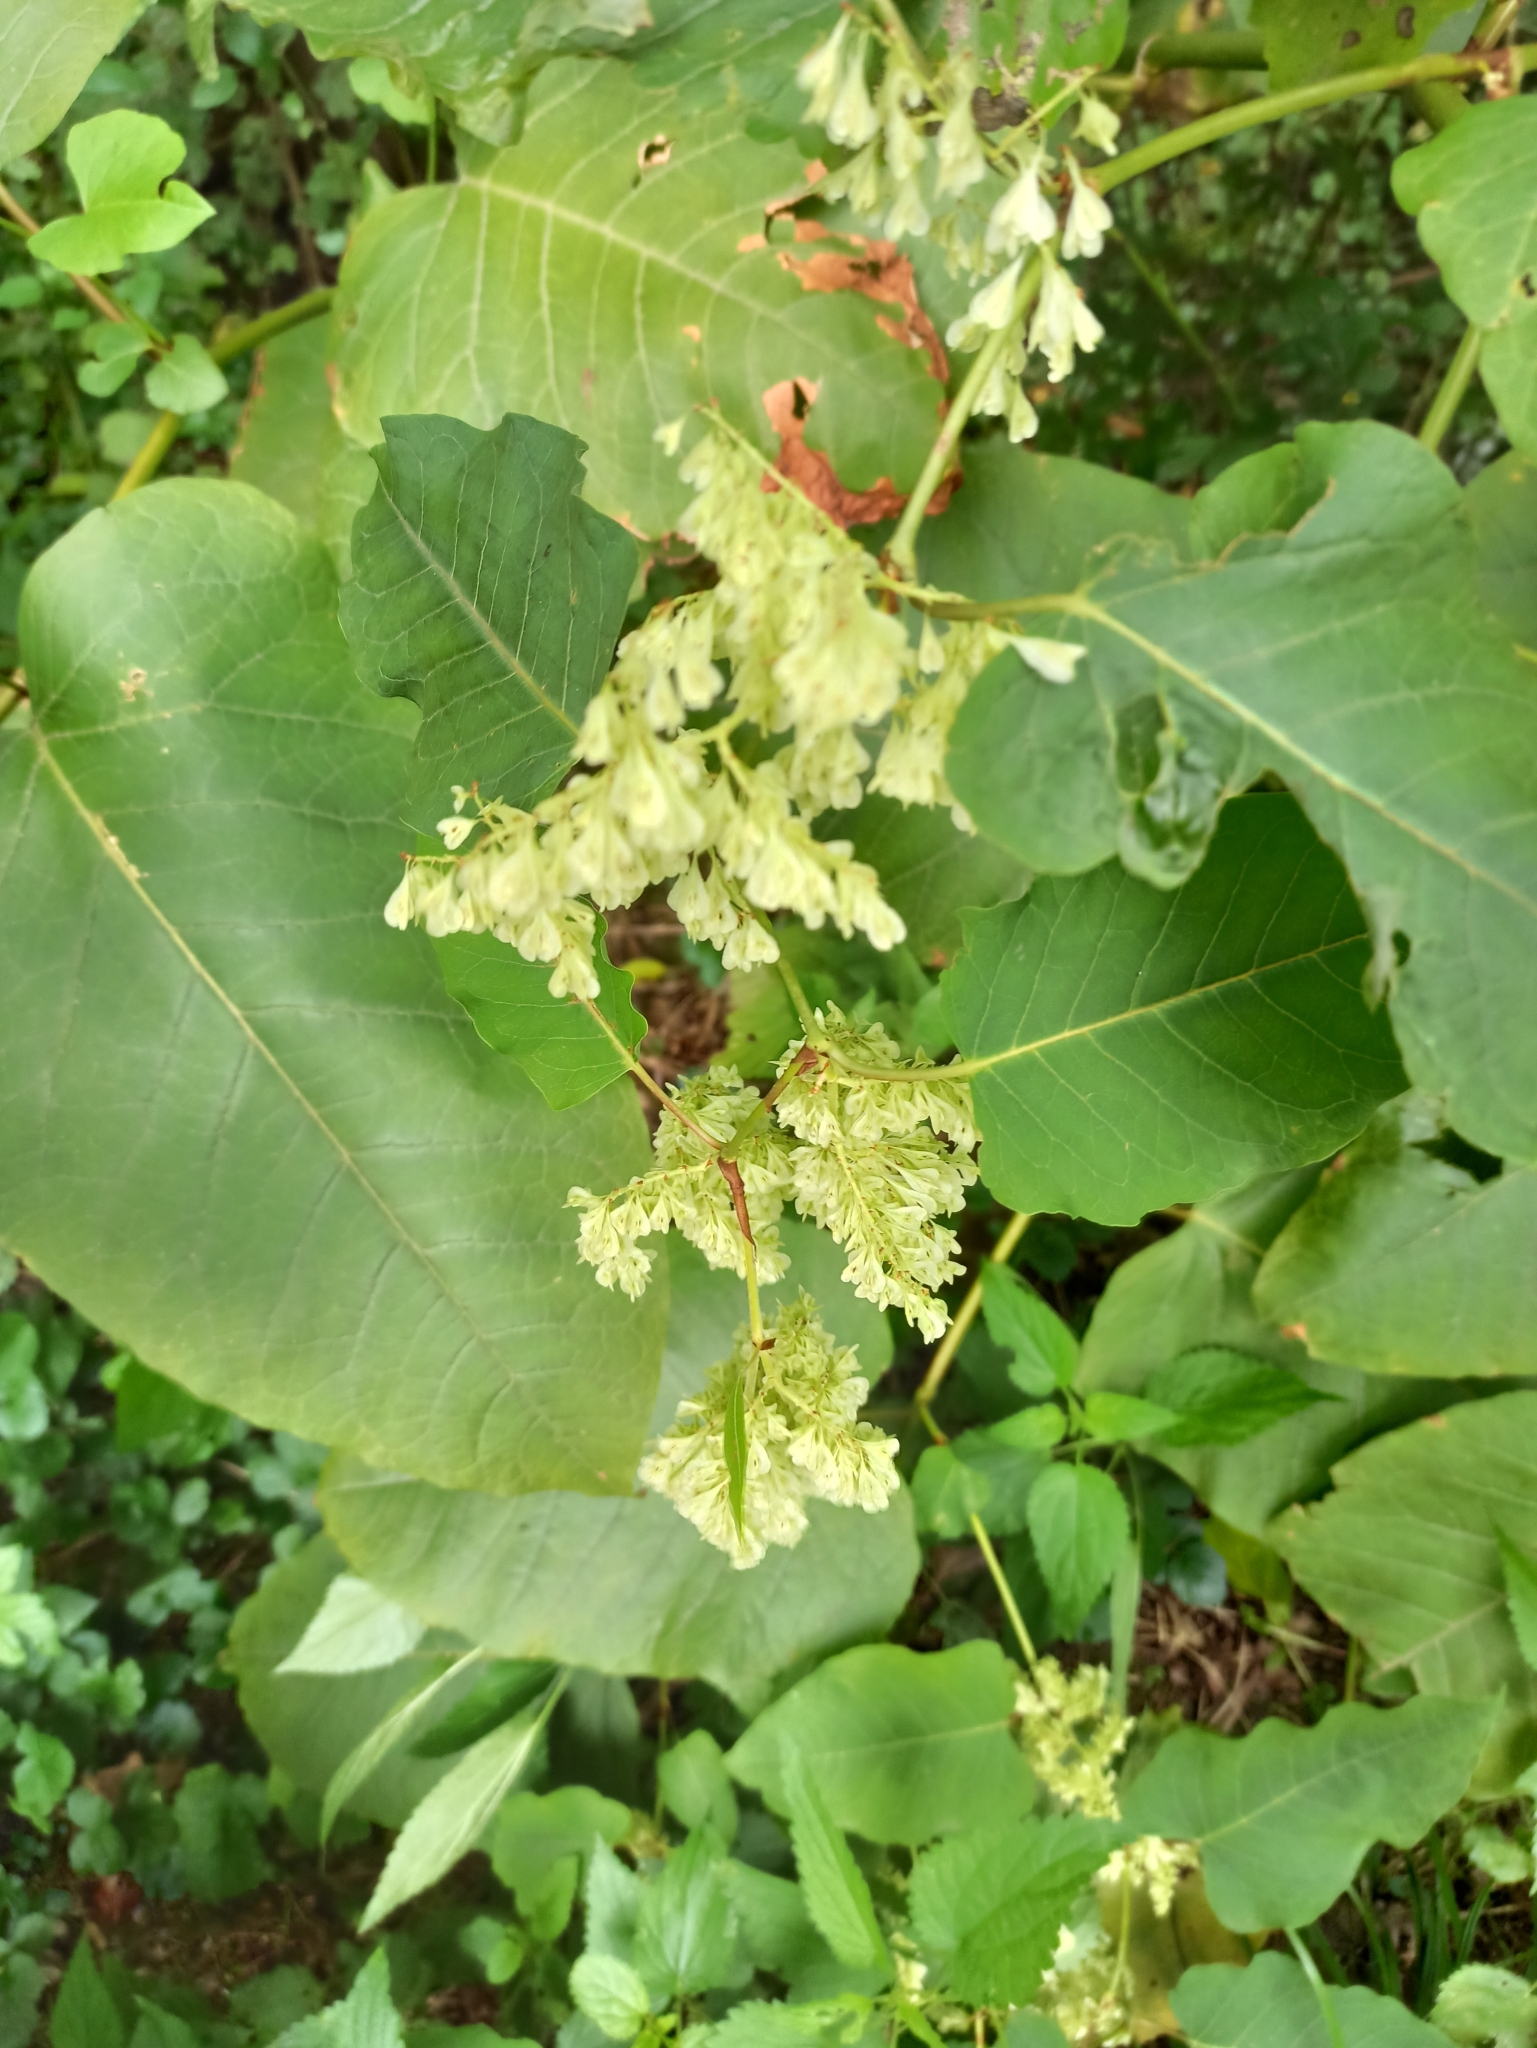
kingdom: Plantae
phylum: Tracheophyta
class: Magnoliopsida
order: Caryophyllales
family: Polygonaceae
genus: Reynoutria
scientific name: Reynoutria sachalinensis
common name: Giant knotweed
